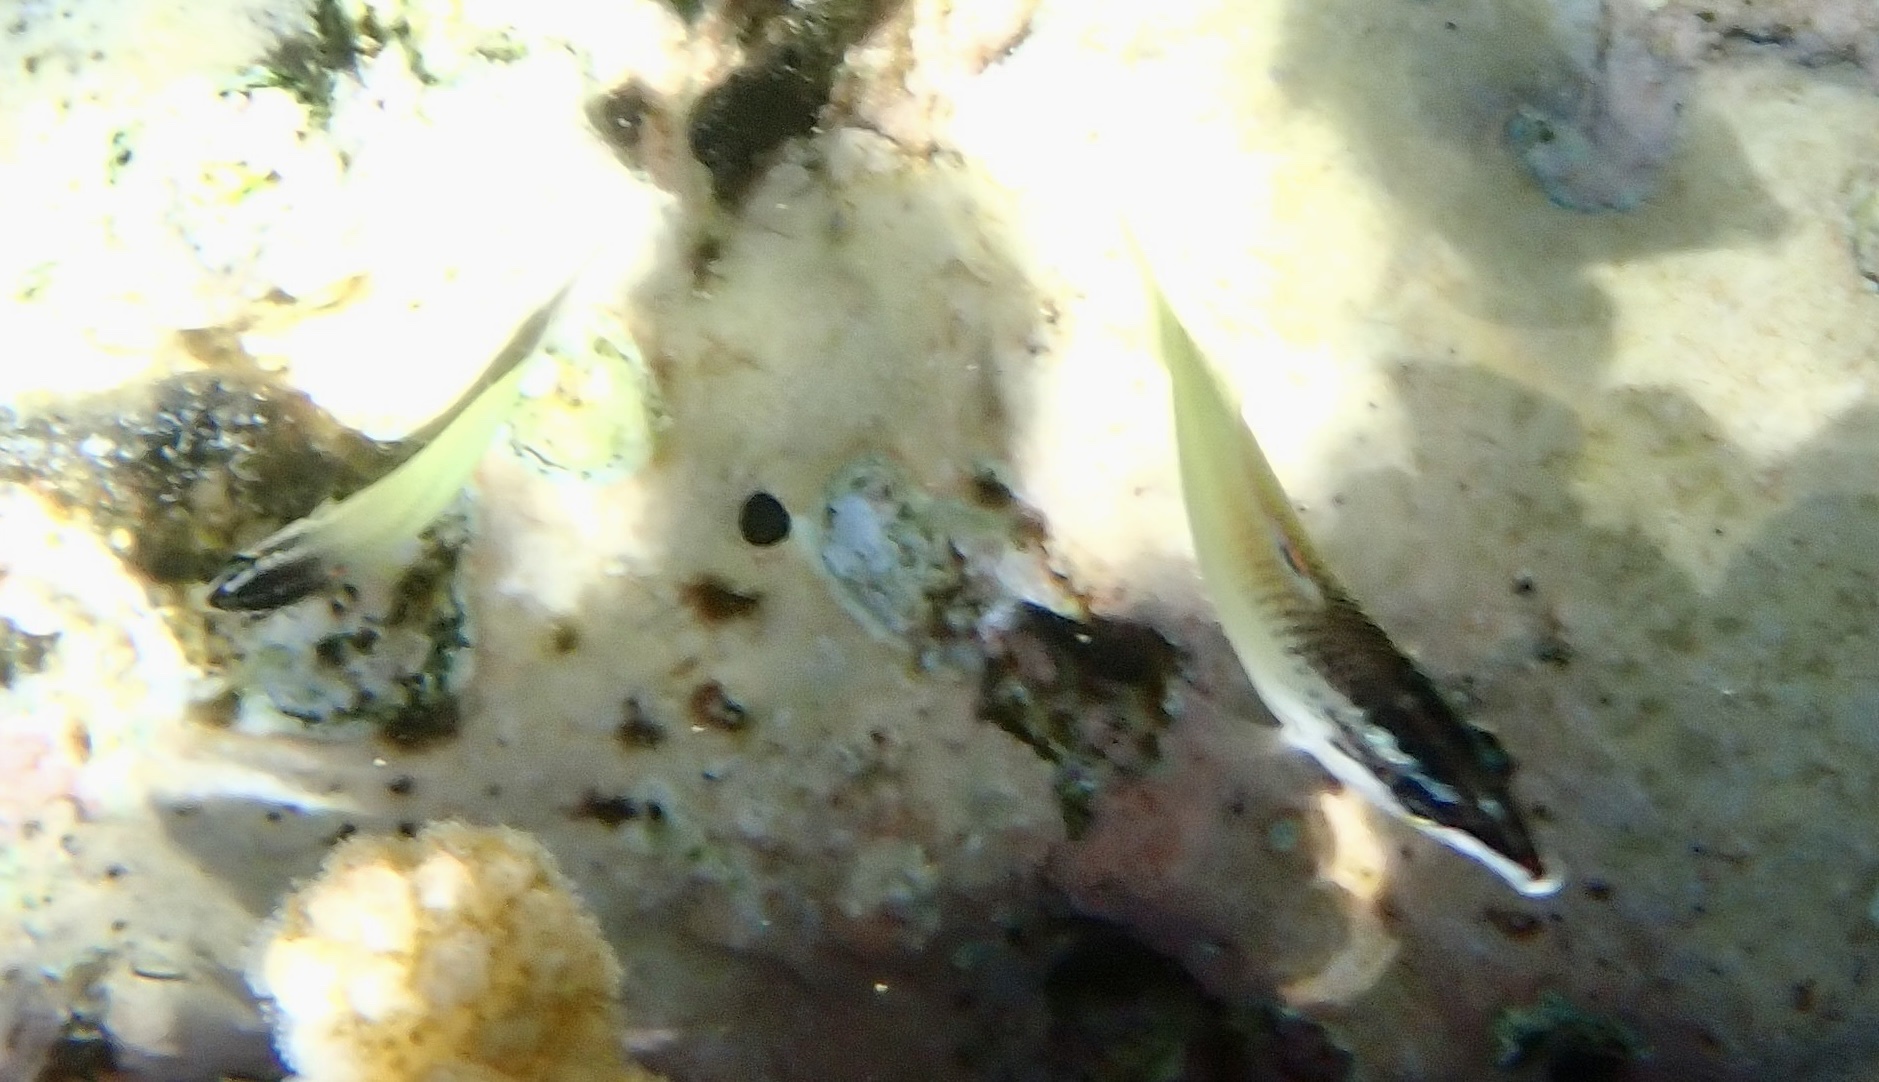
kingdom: Animalia
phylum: Chordata
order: Perciformes
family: Labridae
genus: Gomphosus
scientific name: Gomphosus klunzingeri
